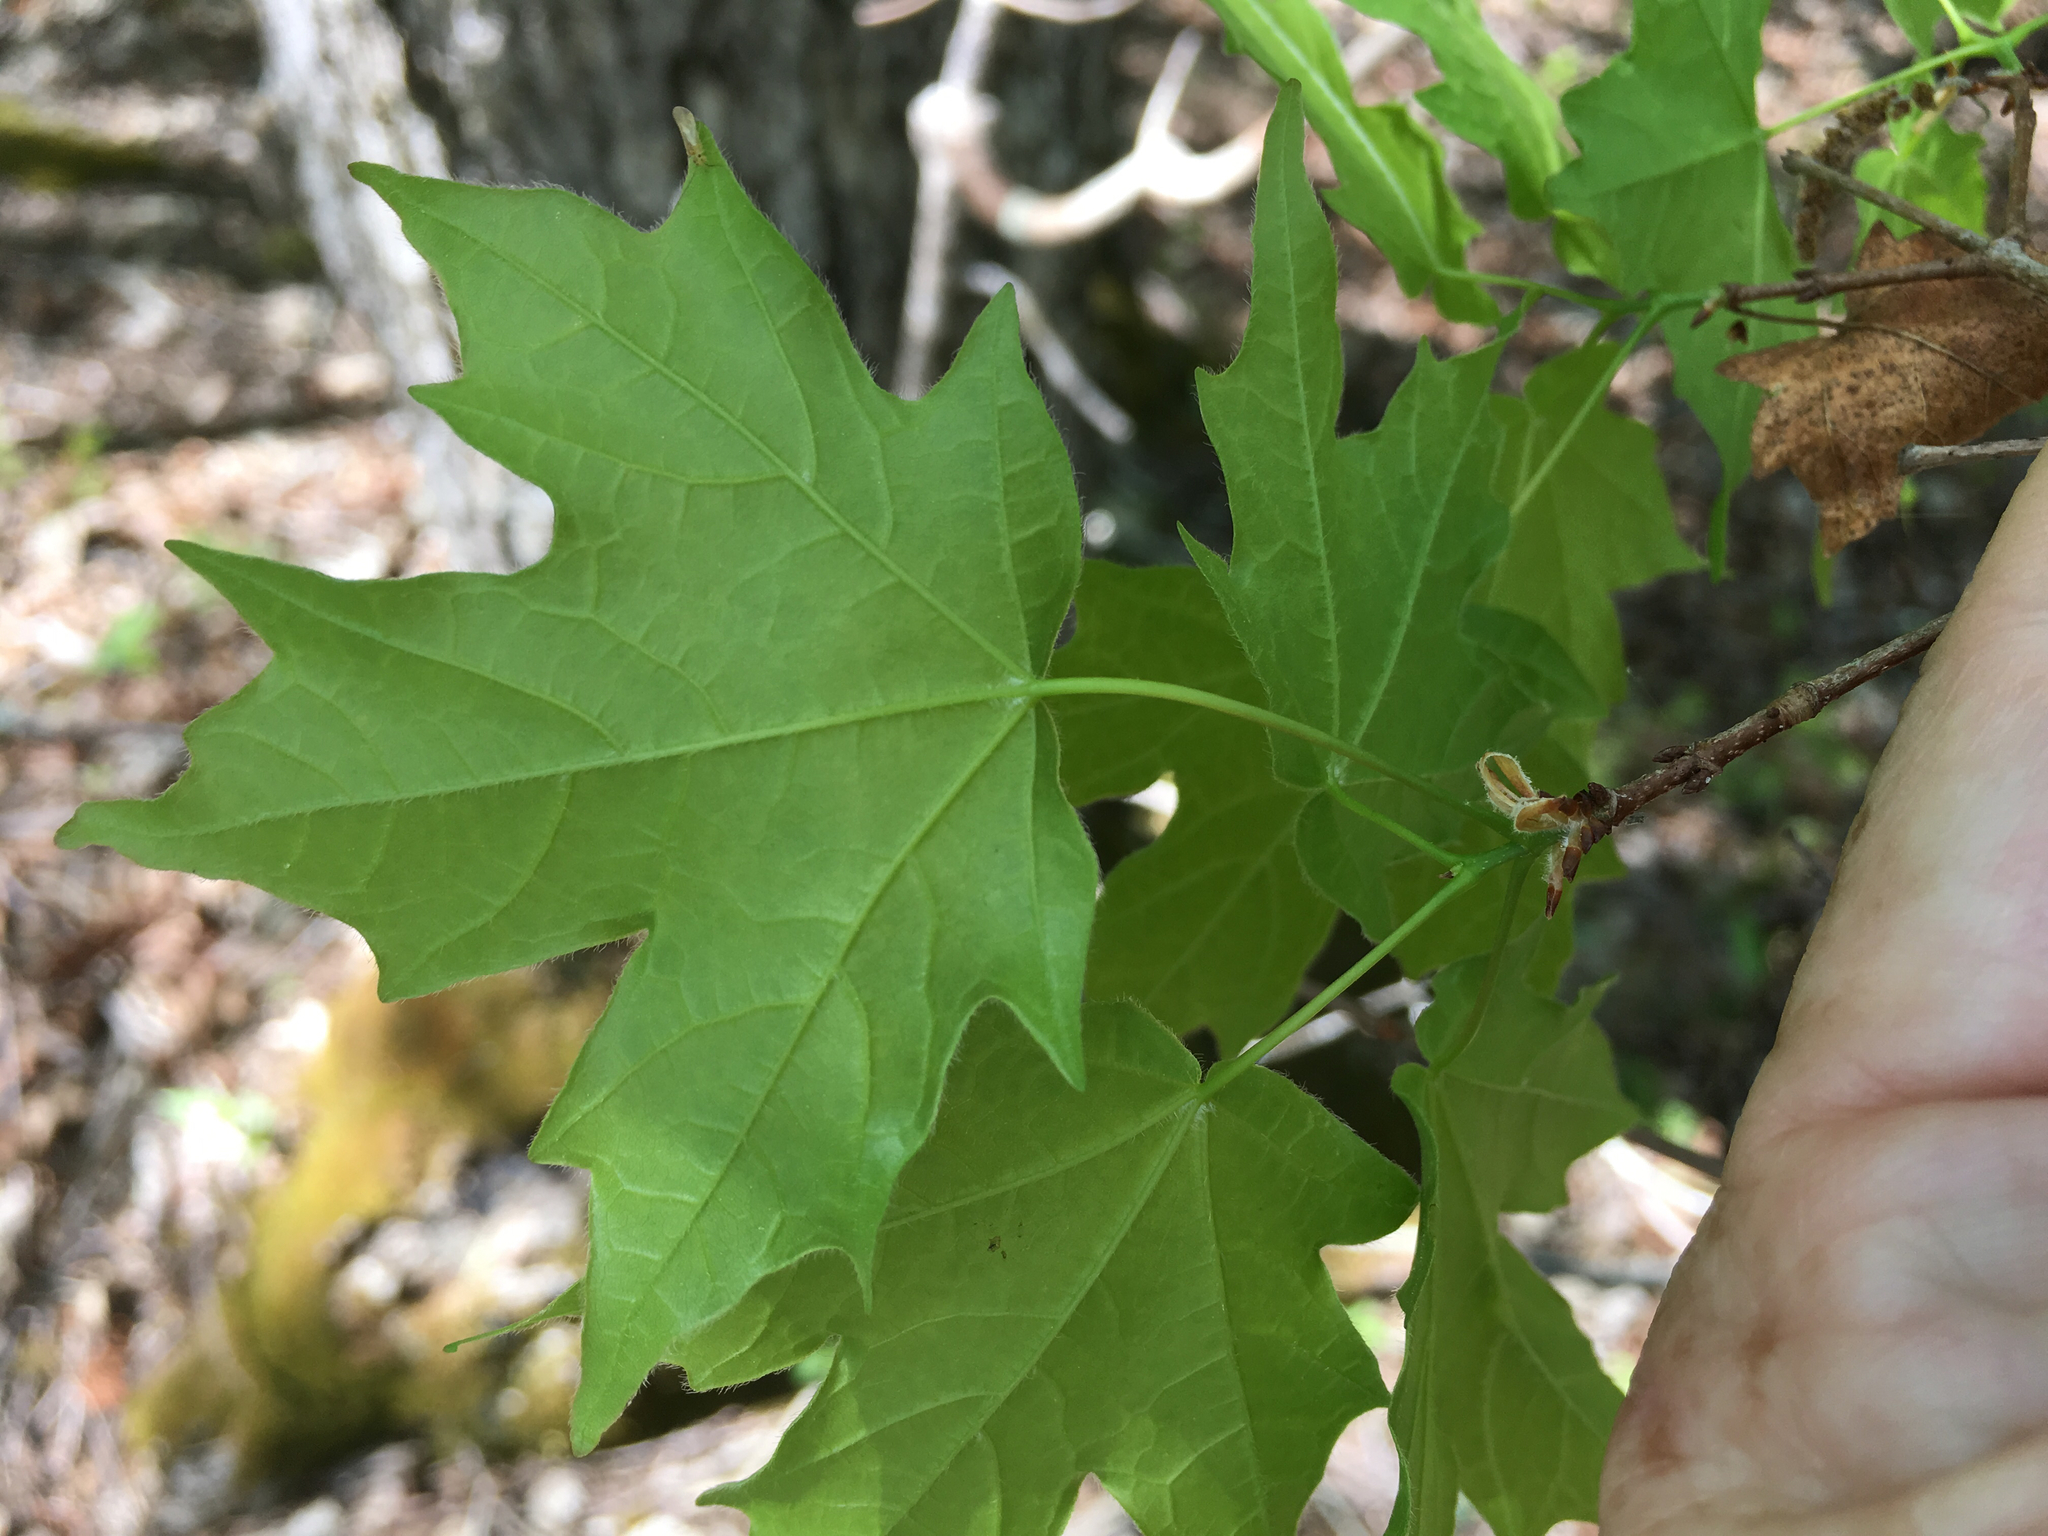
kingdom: Plantae
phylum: Tracheophyta
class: Magnoliopsida
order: Sapindales
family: Sapindaceae
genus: Acer
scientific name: Acer leucoderme
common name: Chalk maple
